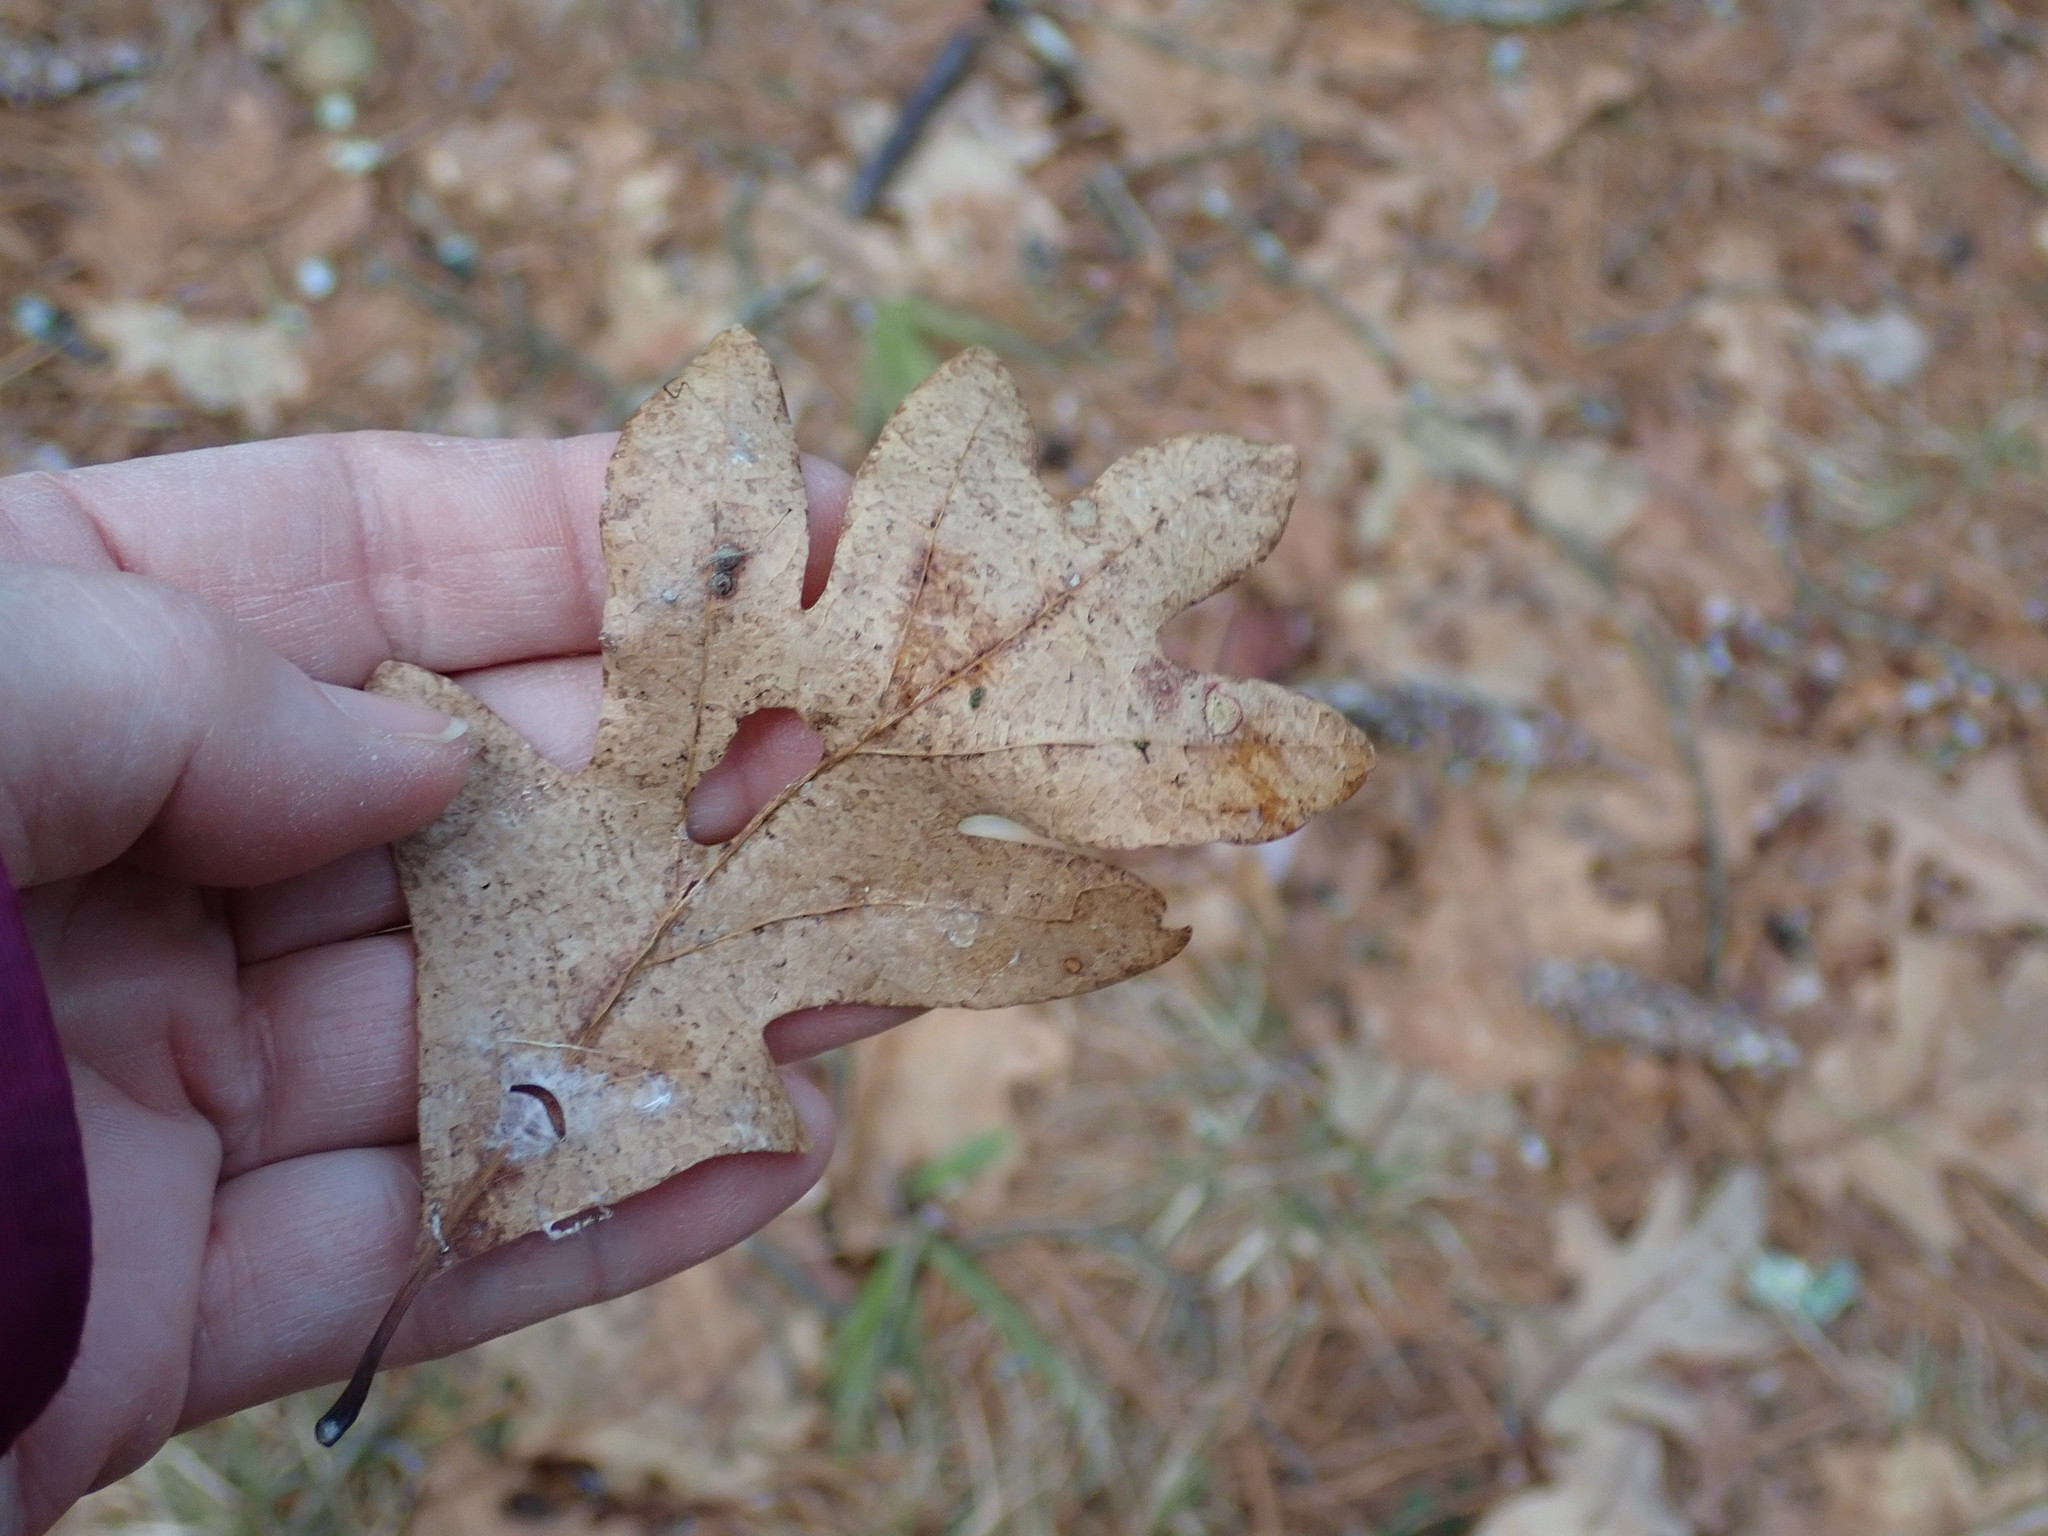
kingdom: Plantae
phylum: Tracheophyta
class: Magnoliopsida
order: Fagales
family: Fagaceae
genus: Quercus
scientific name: Quercus alba
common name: White oak
